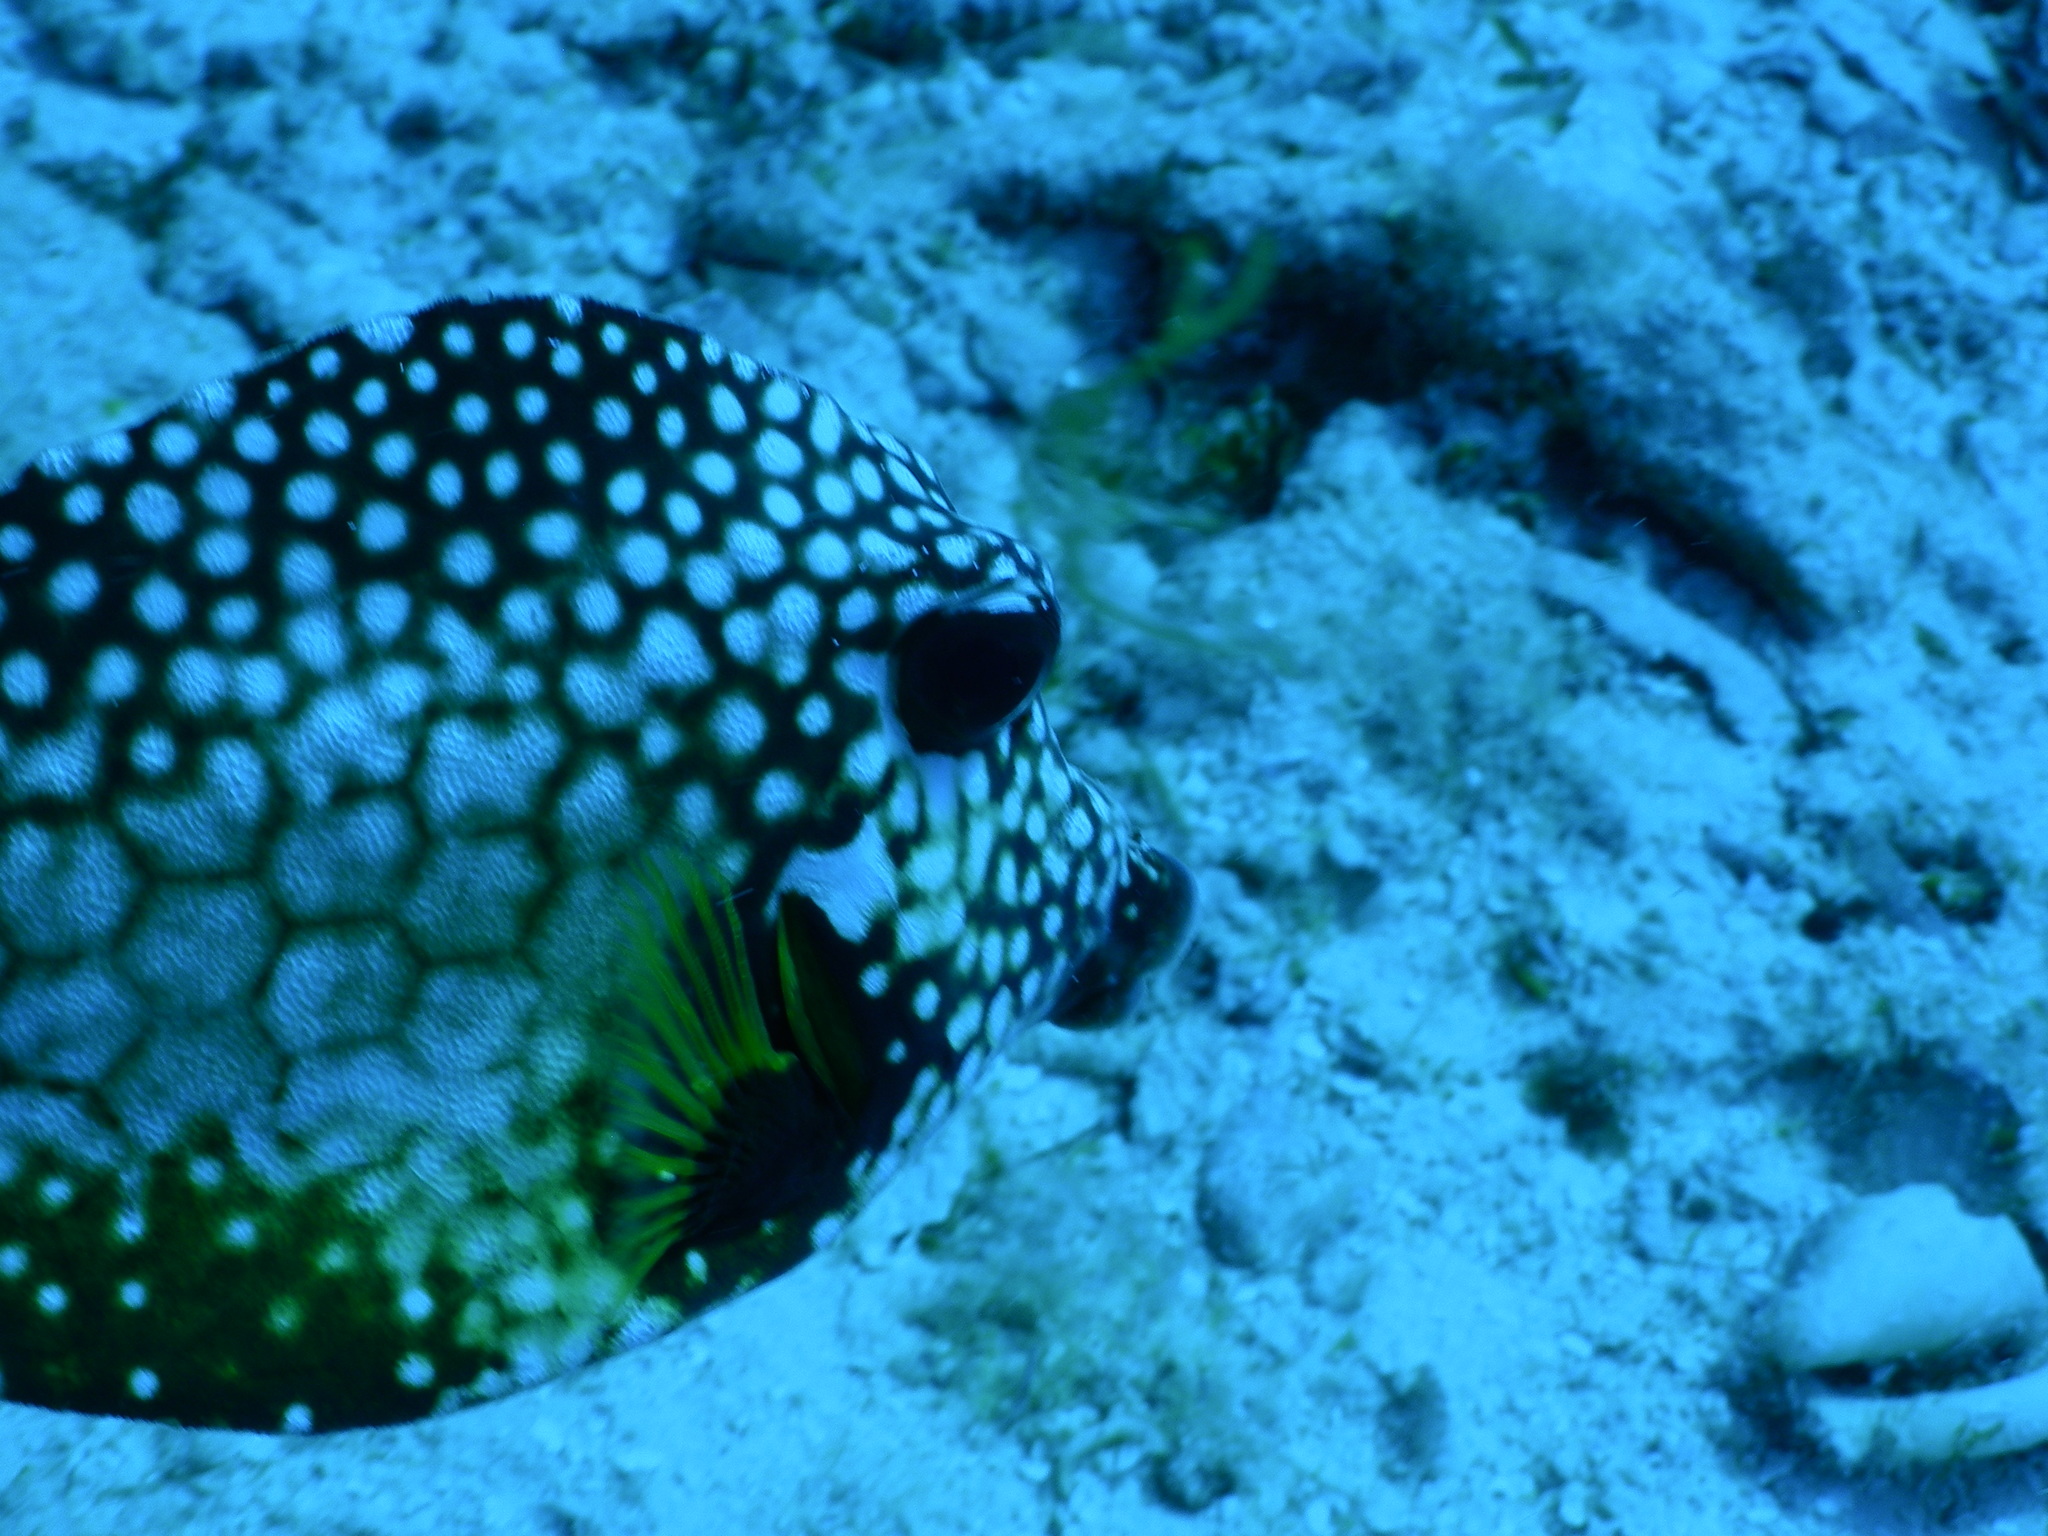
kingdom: Animalia
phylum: Chordata
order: Tetraodontiformes
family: Ostraciidae
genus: Lactophrys
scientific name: Lactophrys triqueter
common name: Smooth trunkfish
